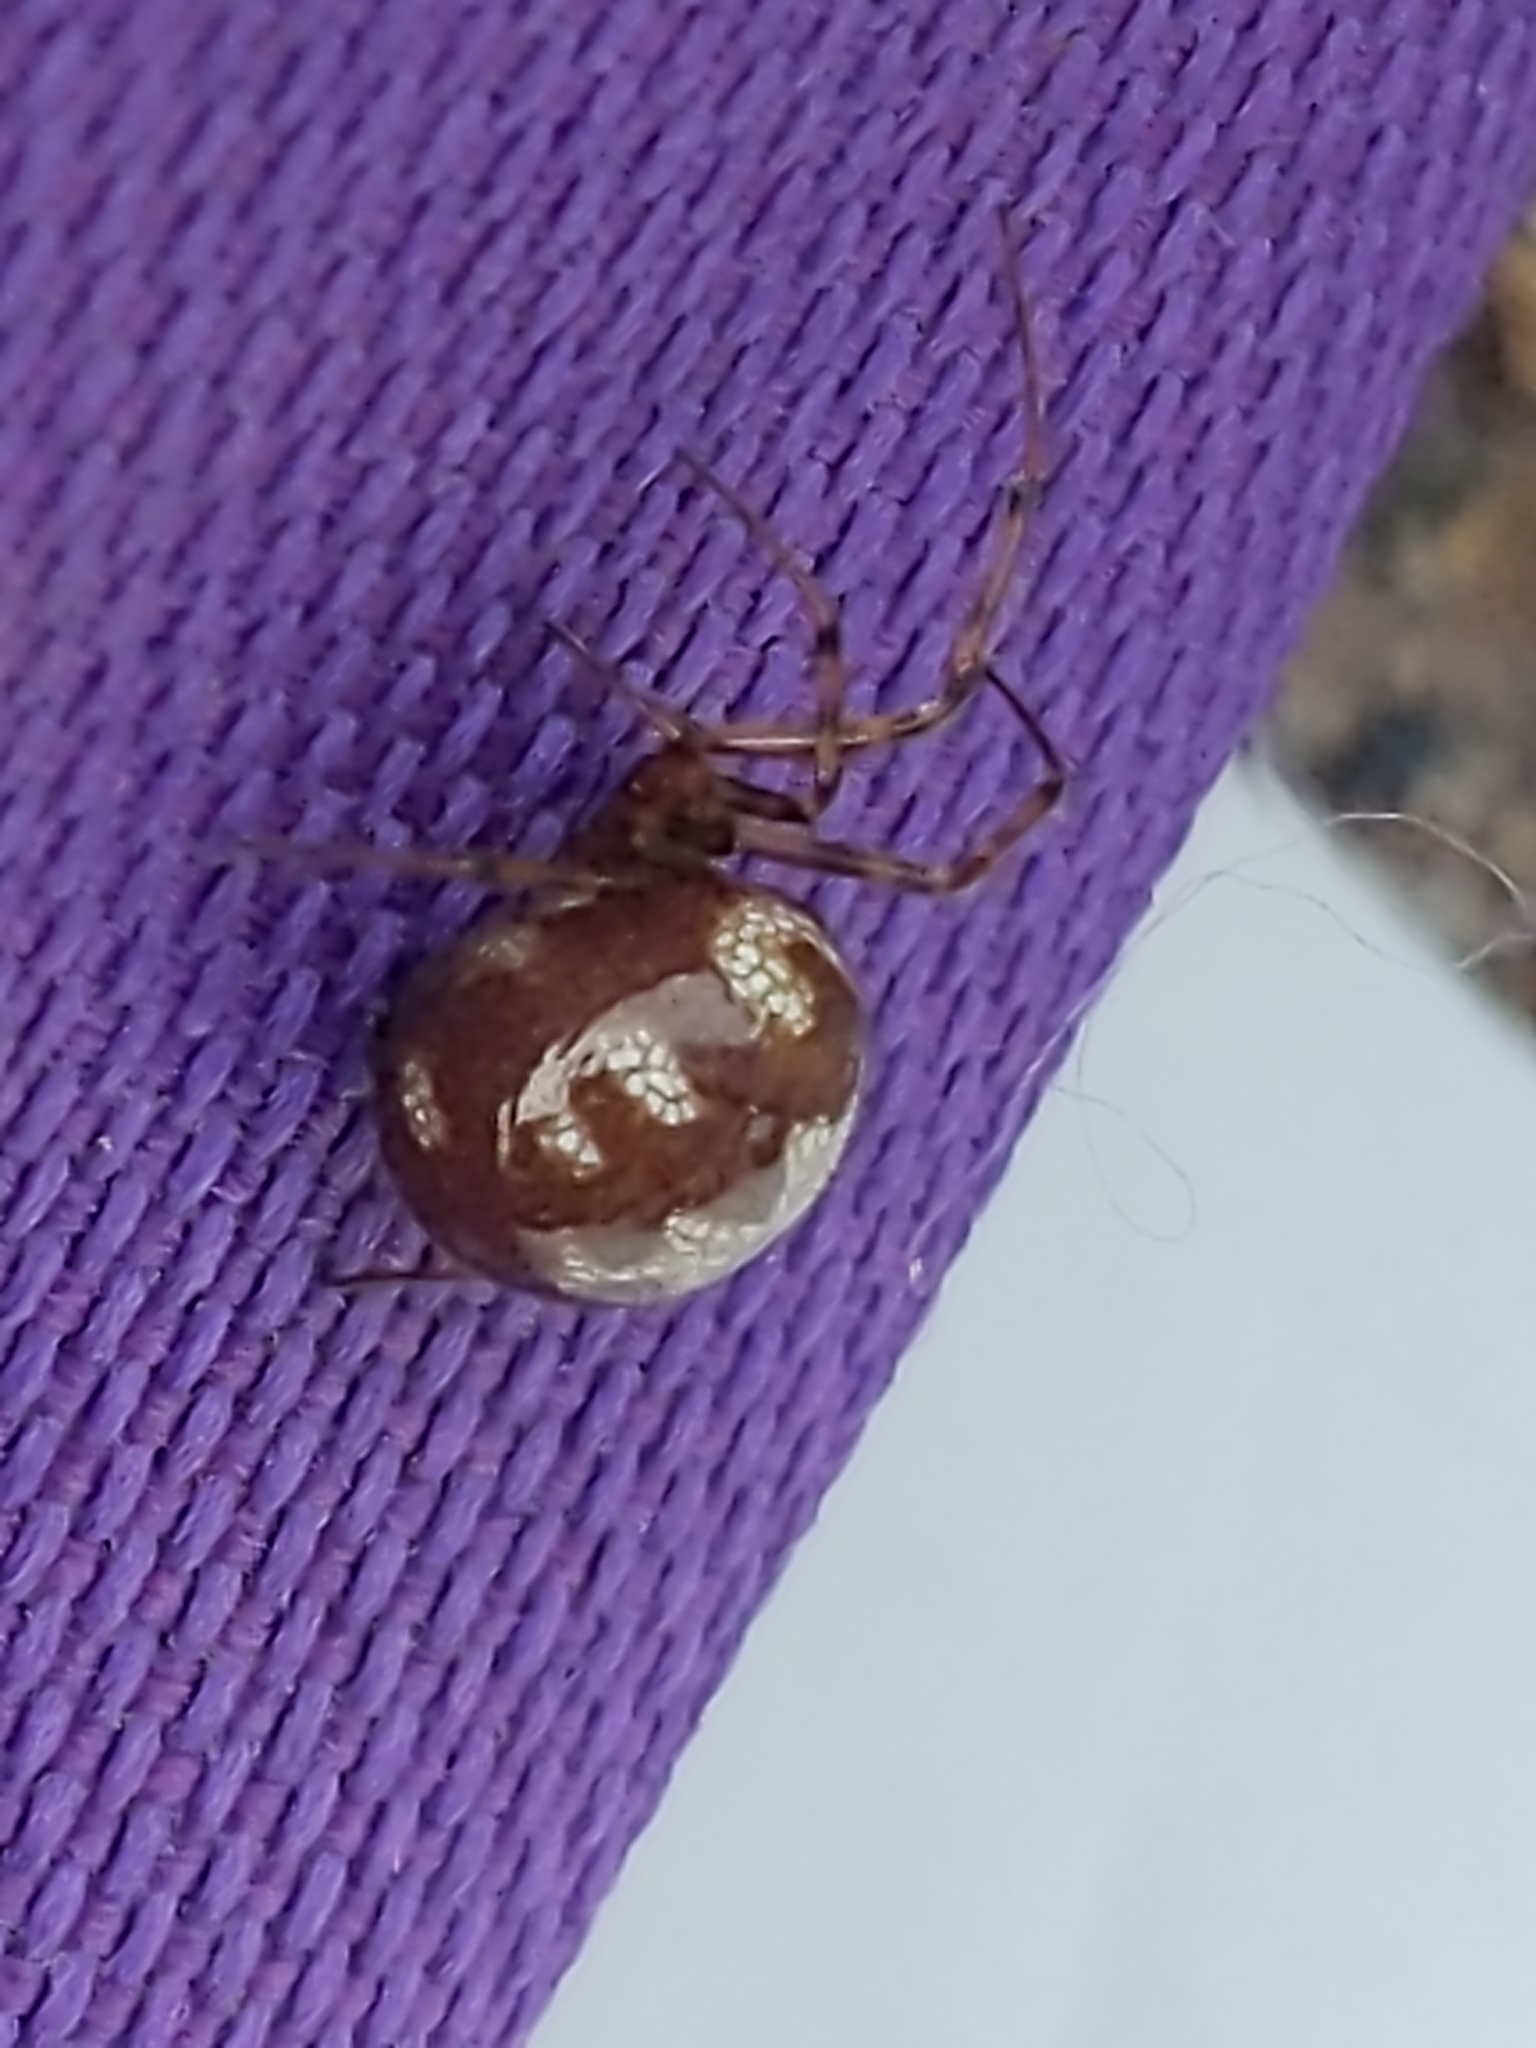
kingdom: Animalia
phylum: Arthropoda
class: Arachnida
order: Araneae
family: Theridiidae
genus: Steatoda
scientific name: Steatoda triangulosa
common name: Triangulate bud spider
